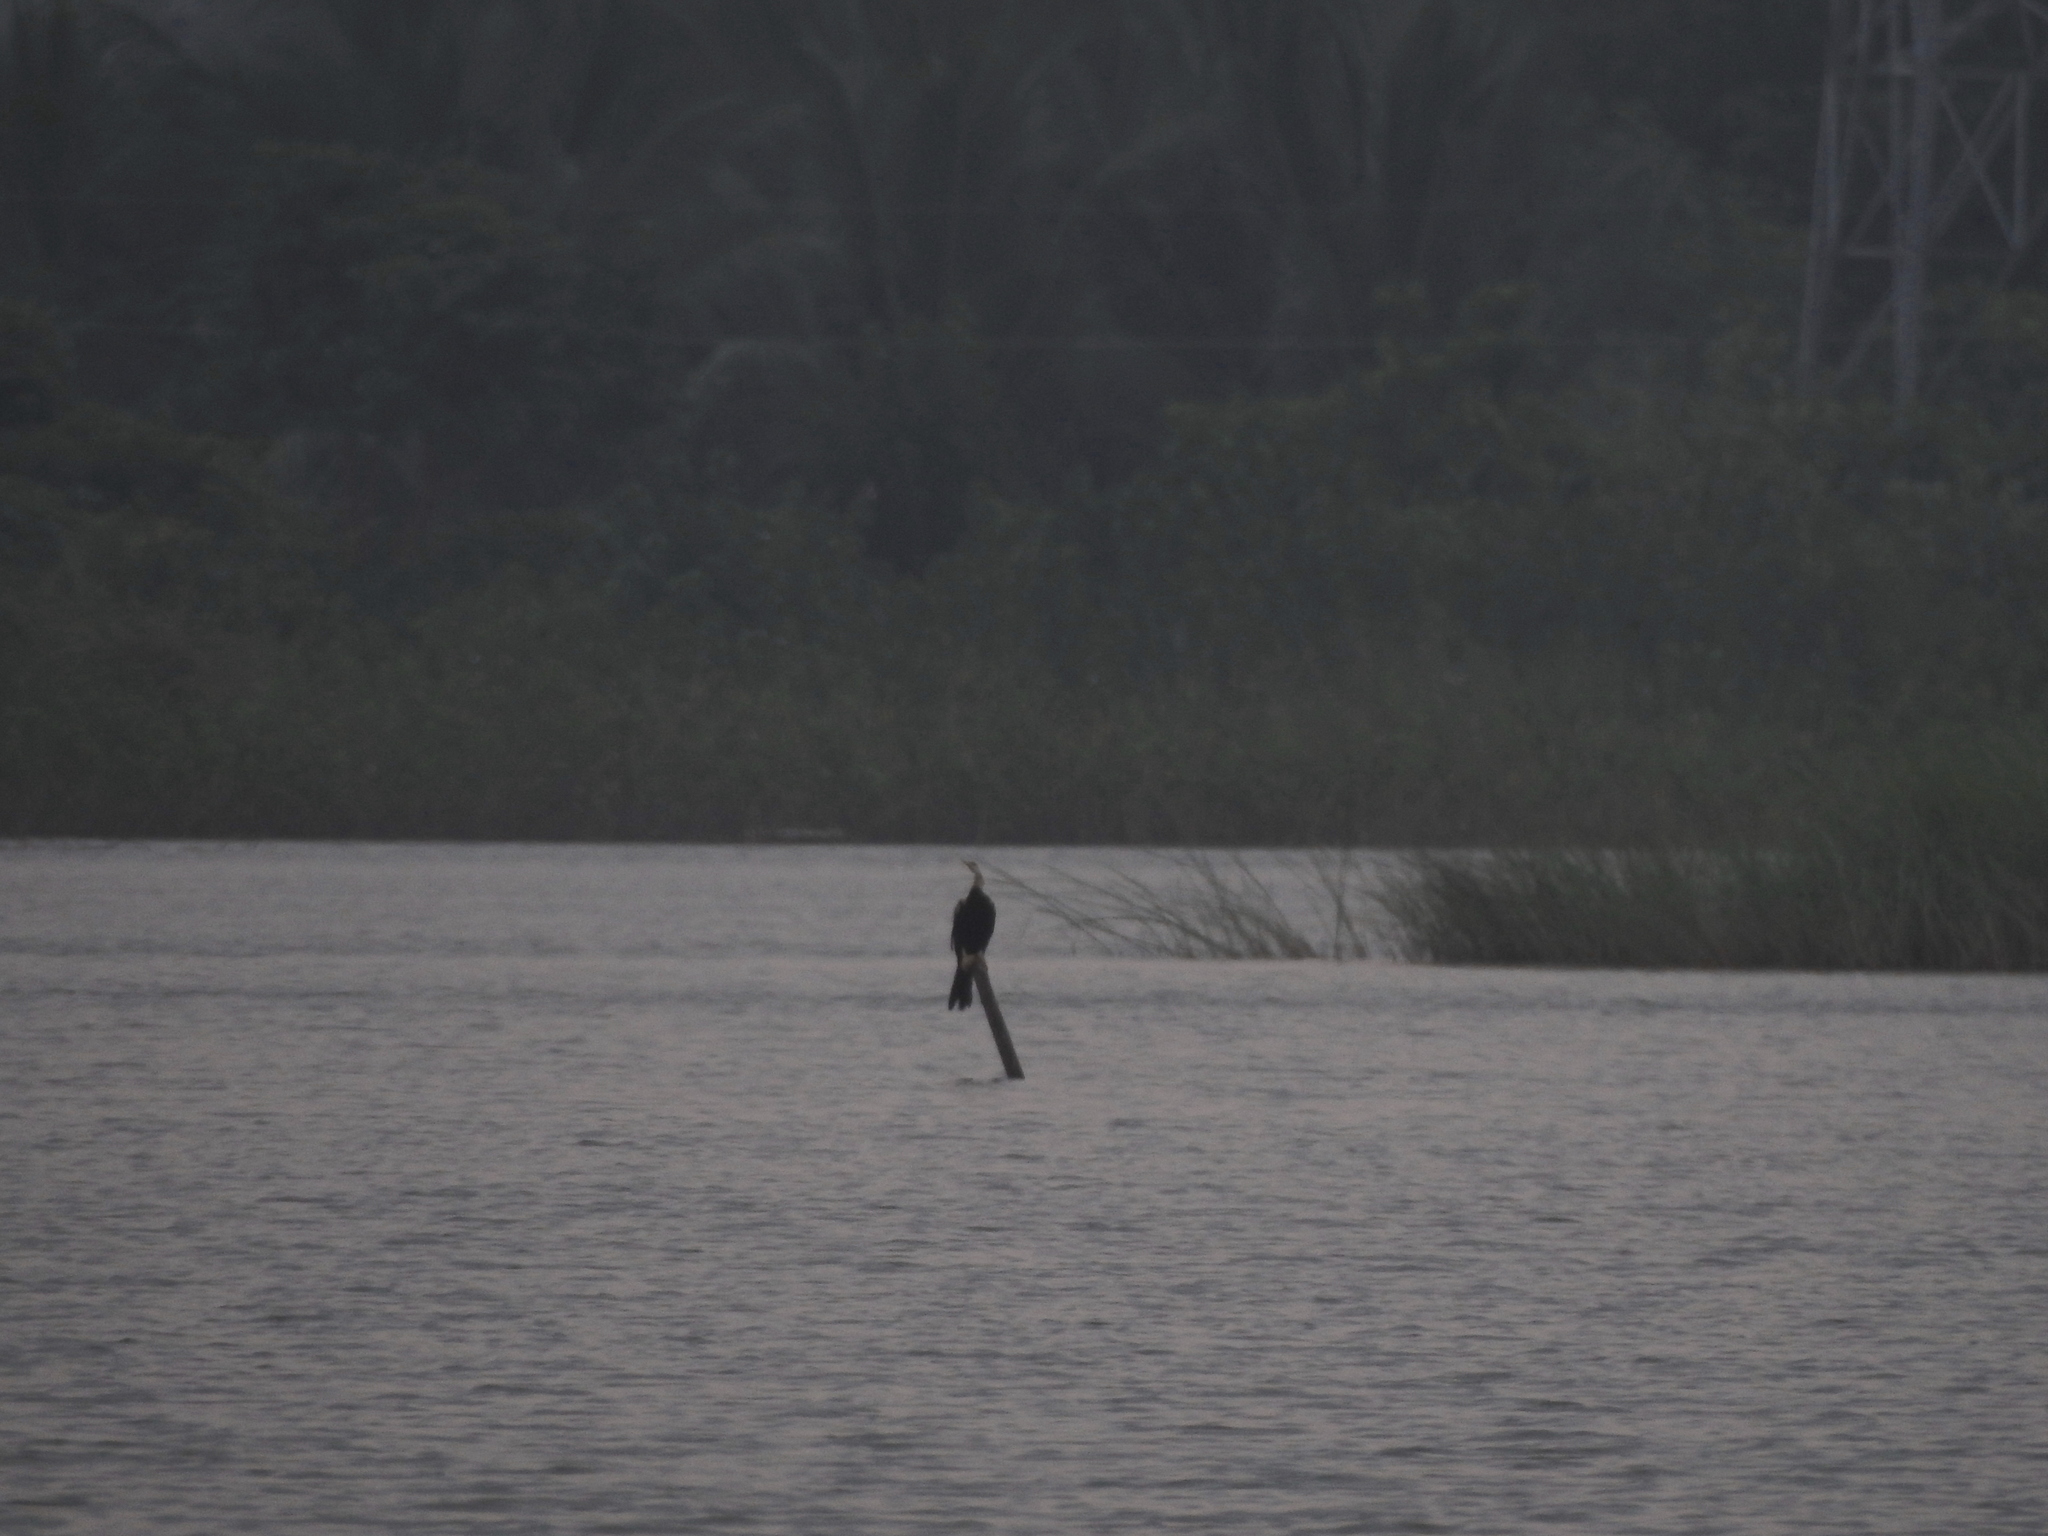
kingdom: Animalia
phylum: Chordata
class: Aves
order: Suliformes
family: Anhingidae
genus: Anhinga
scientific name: Anhinga melanogaster
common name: Oriental darter
